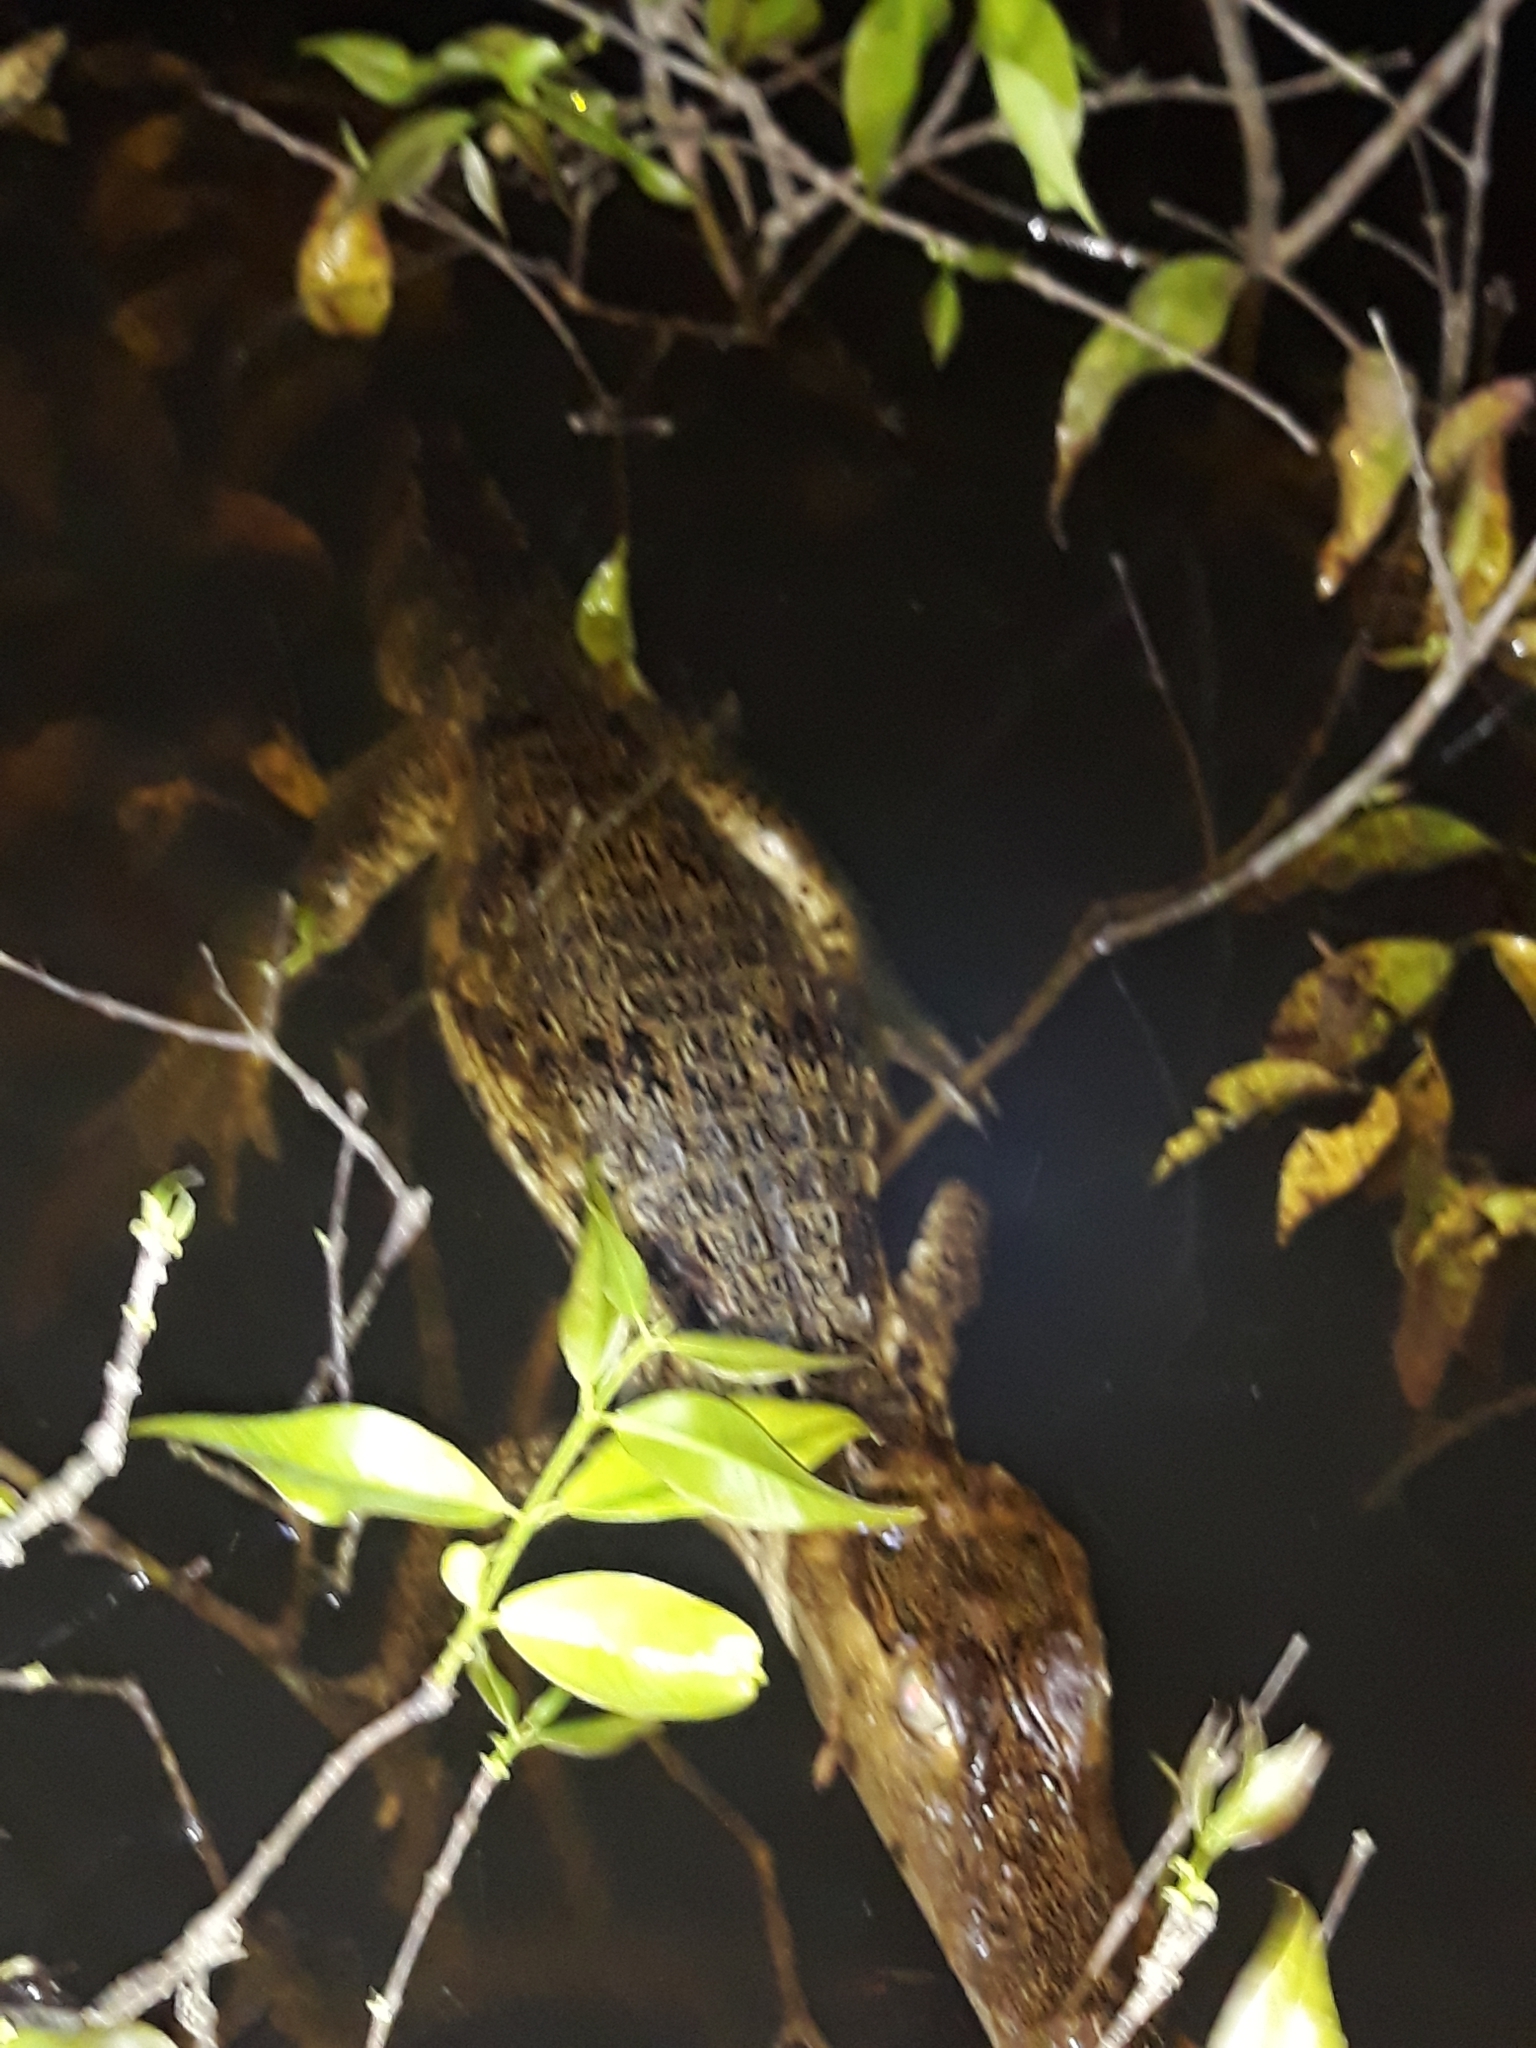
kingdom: Animalia
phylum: Chordata
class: Crocodylia
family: Alligatoridae
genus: Caiman
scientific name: Caiman crocodilus
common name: Common caiman
